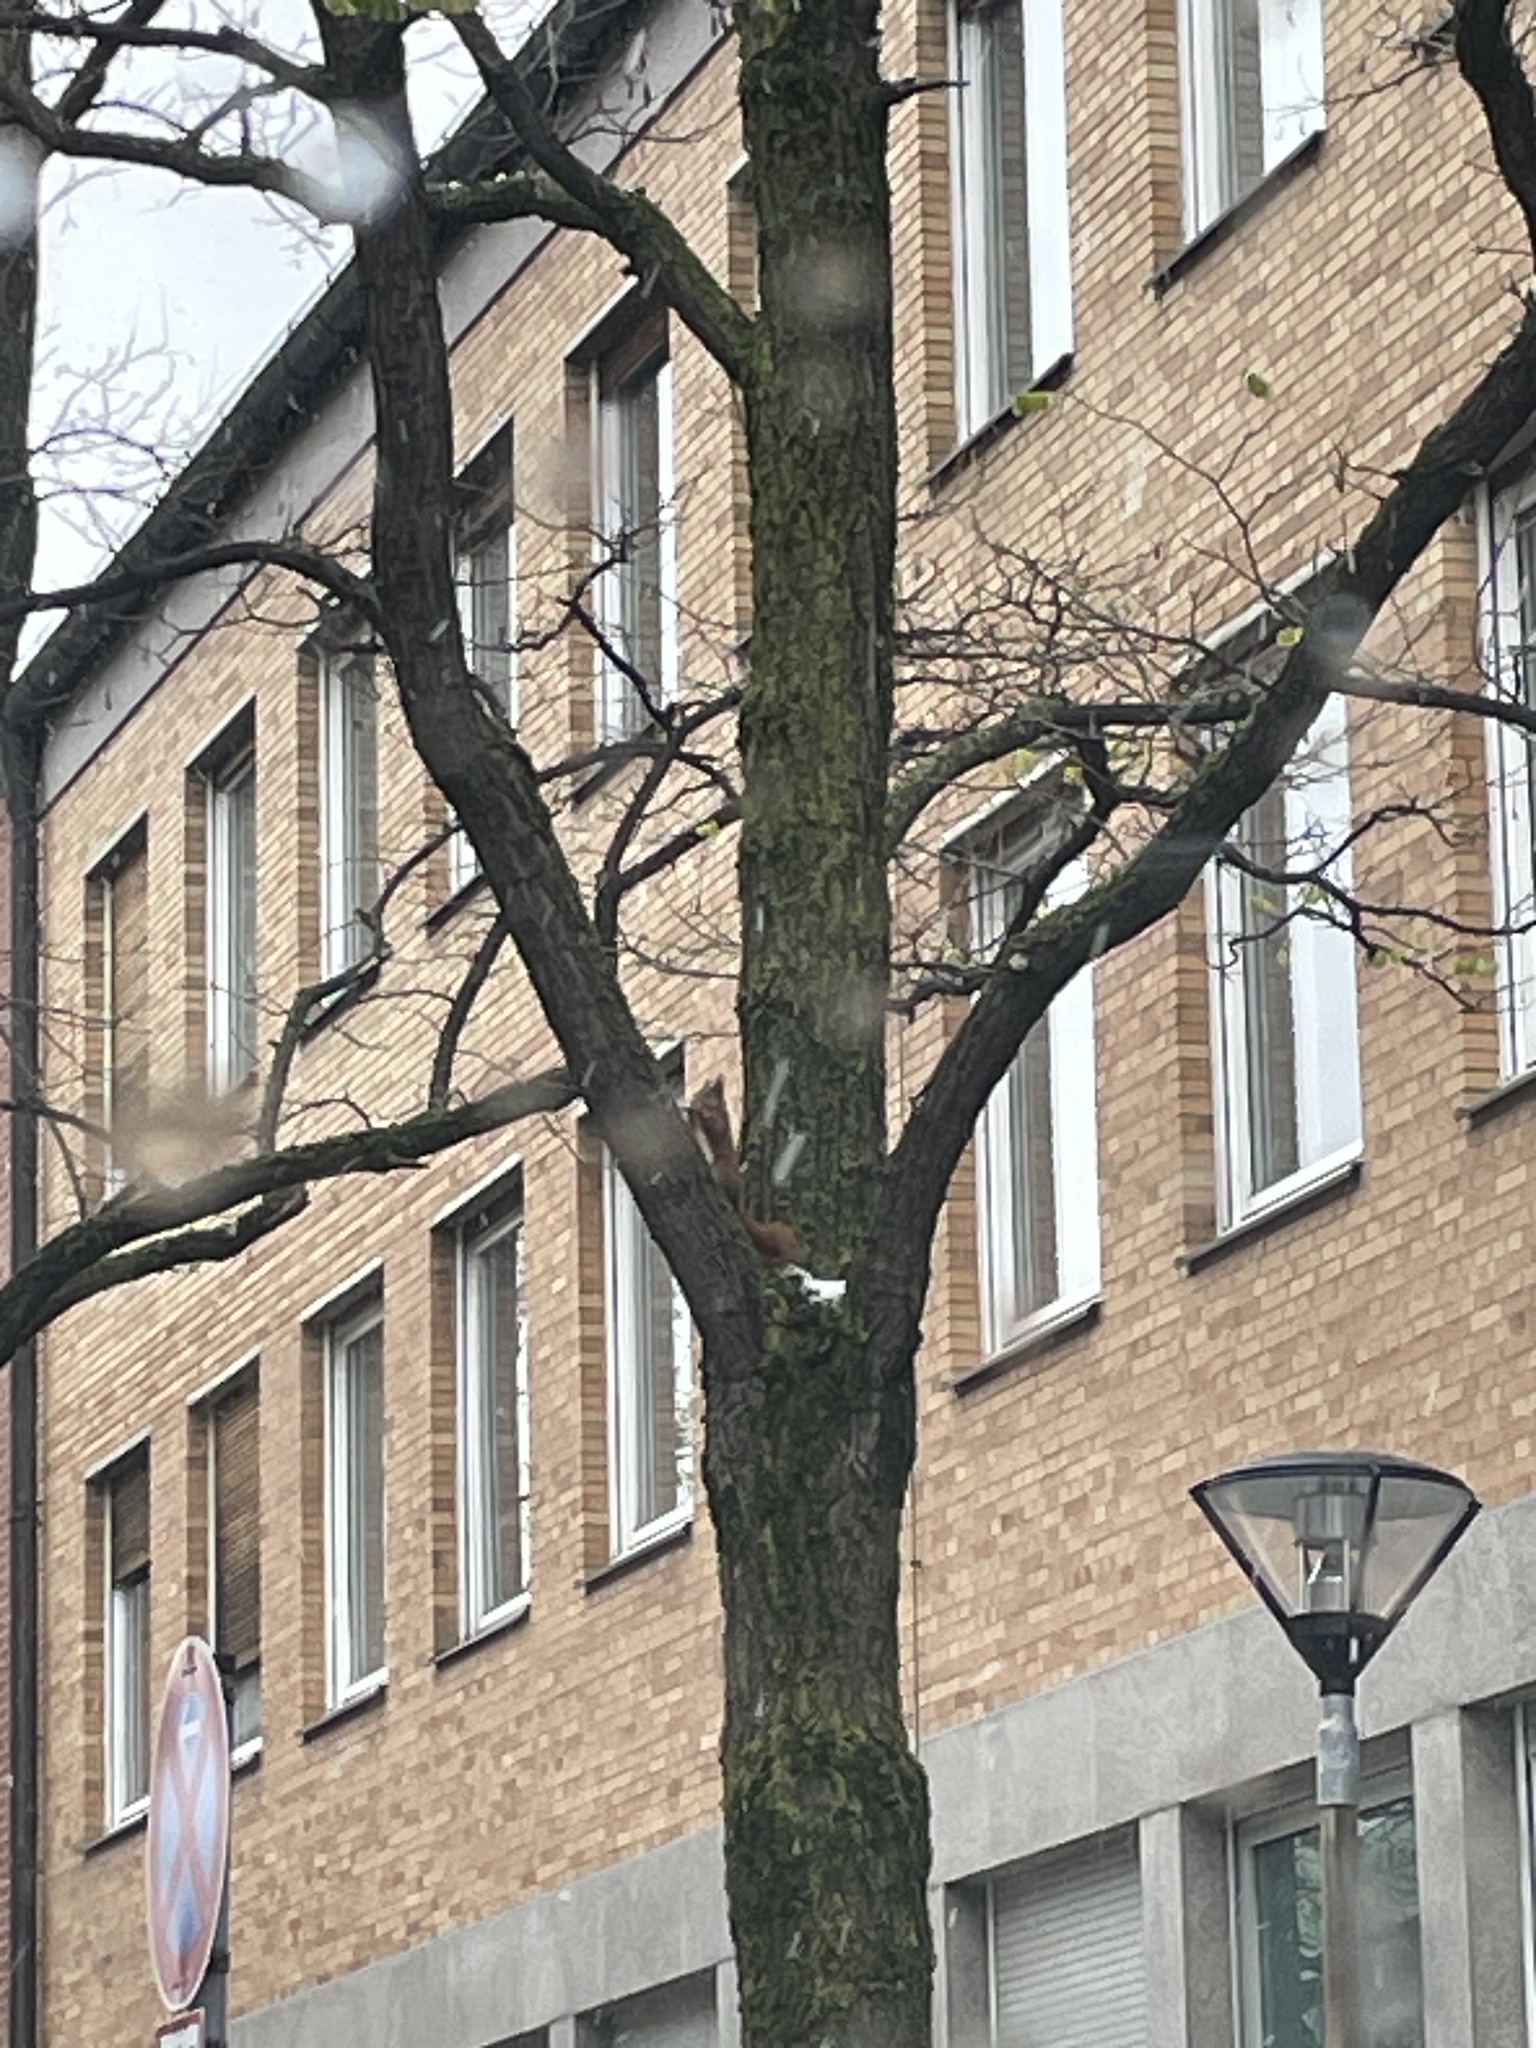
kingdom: Animalia
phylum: Chordata
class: Mammalia
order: Rodentia
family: Sciuridae
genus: Sciurus
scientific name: Sciurus vulgaris
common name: Eurasian red squirrel
